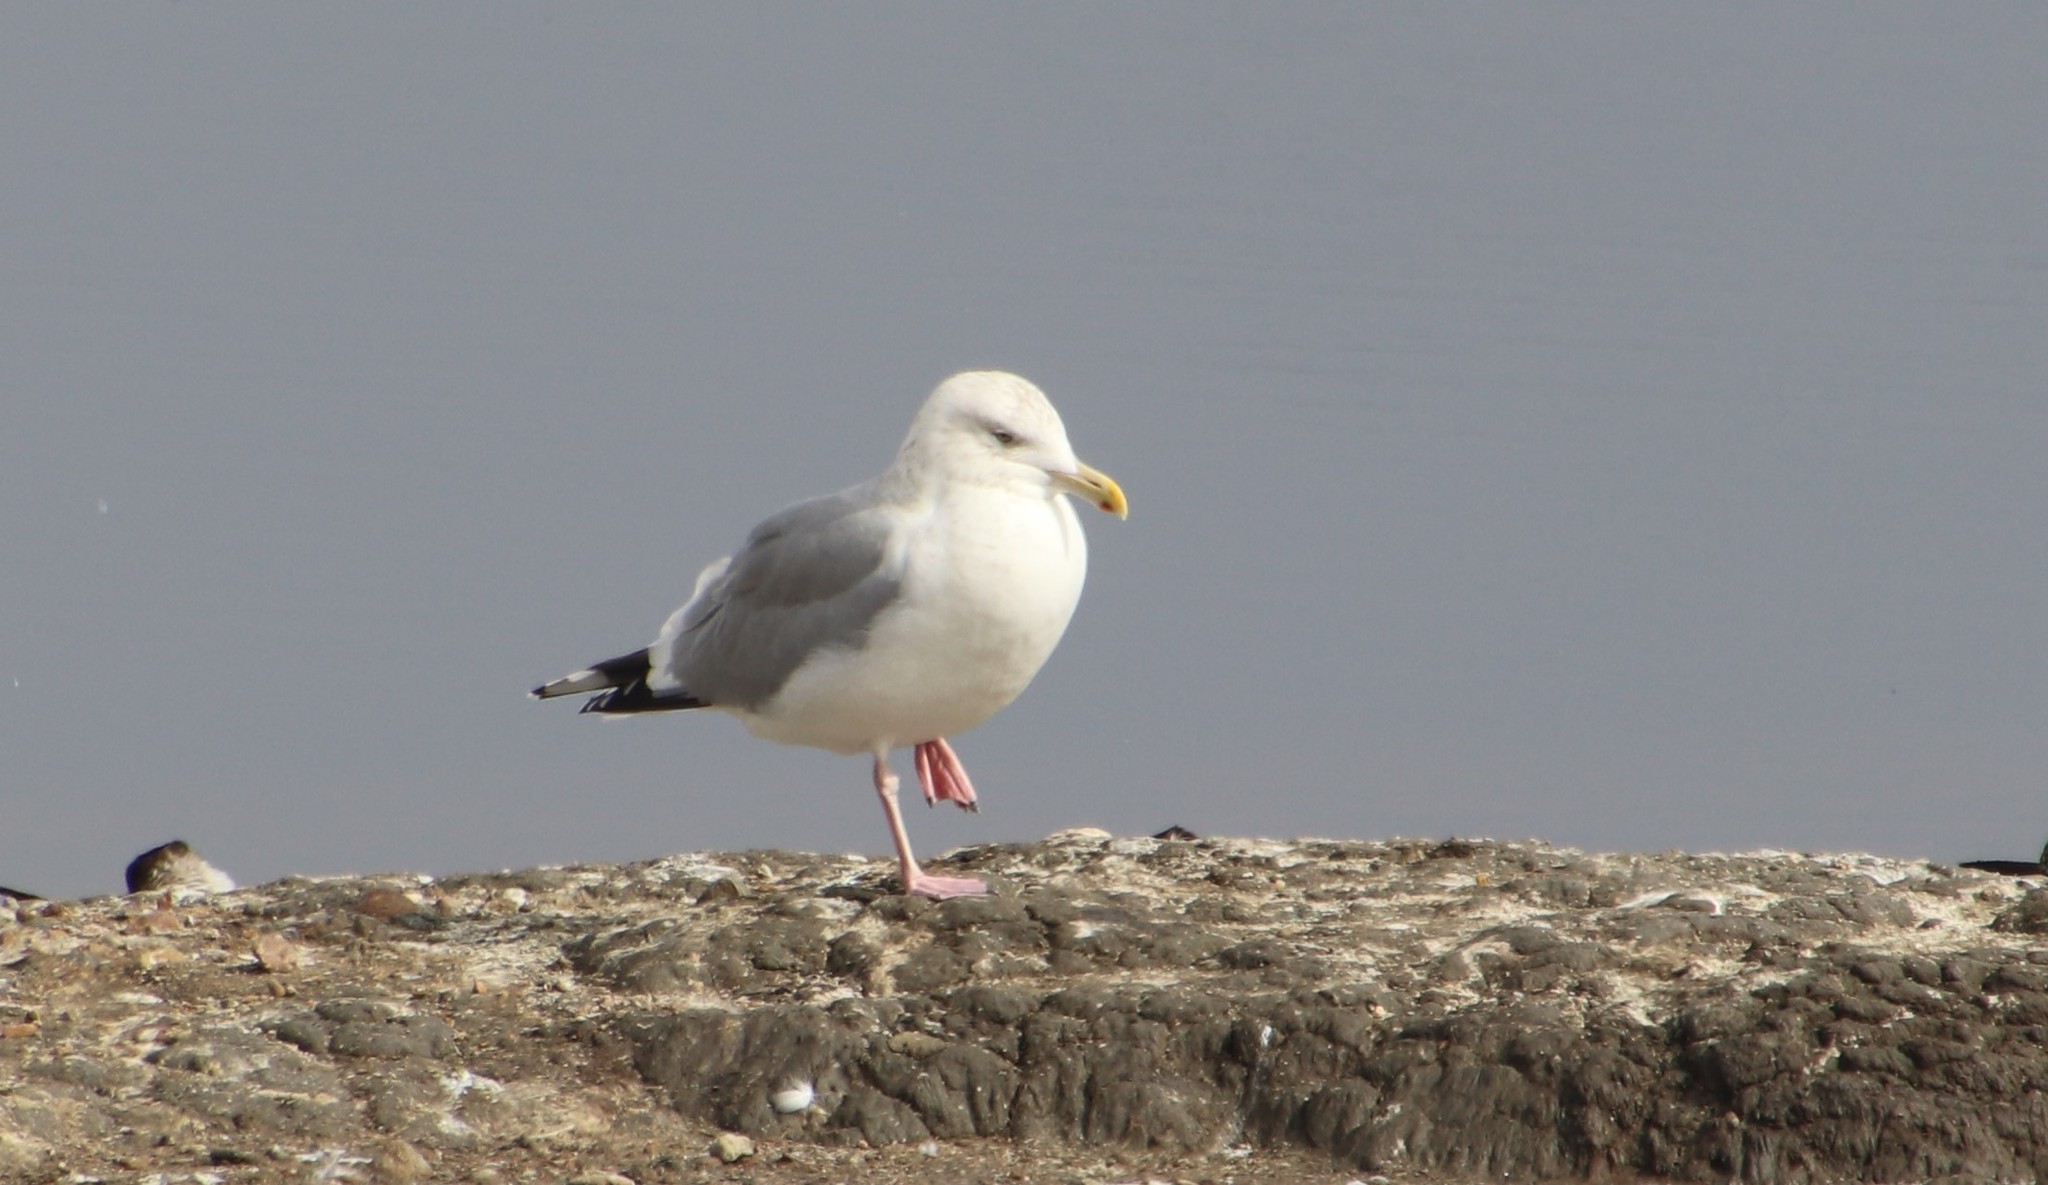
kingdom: Animalia
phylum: Chordata
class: Aves
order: Charadriiformes
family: Laridae
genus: Larus
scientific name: Larus argentatus
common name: Herring gull
